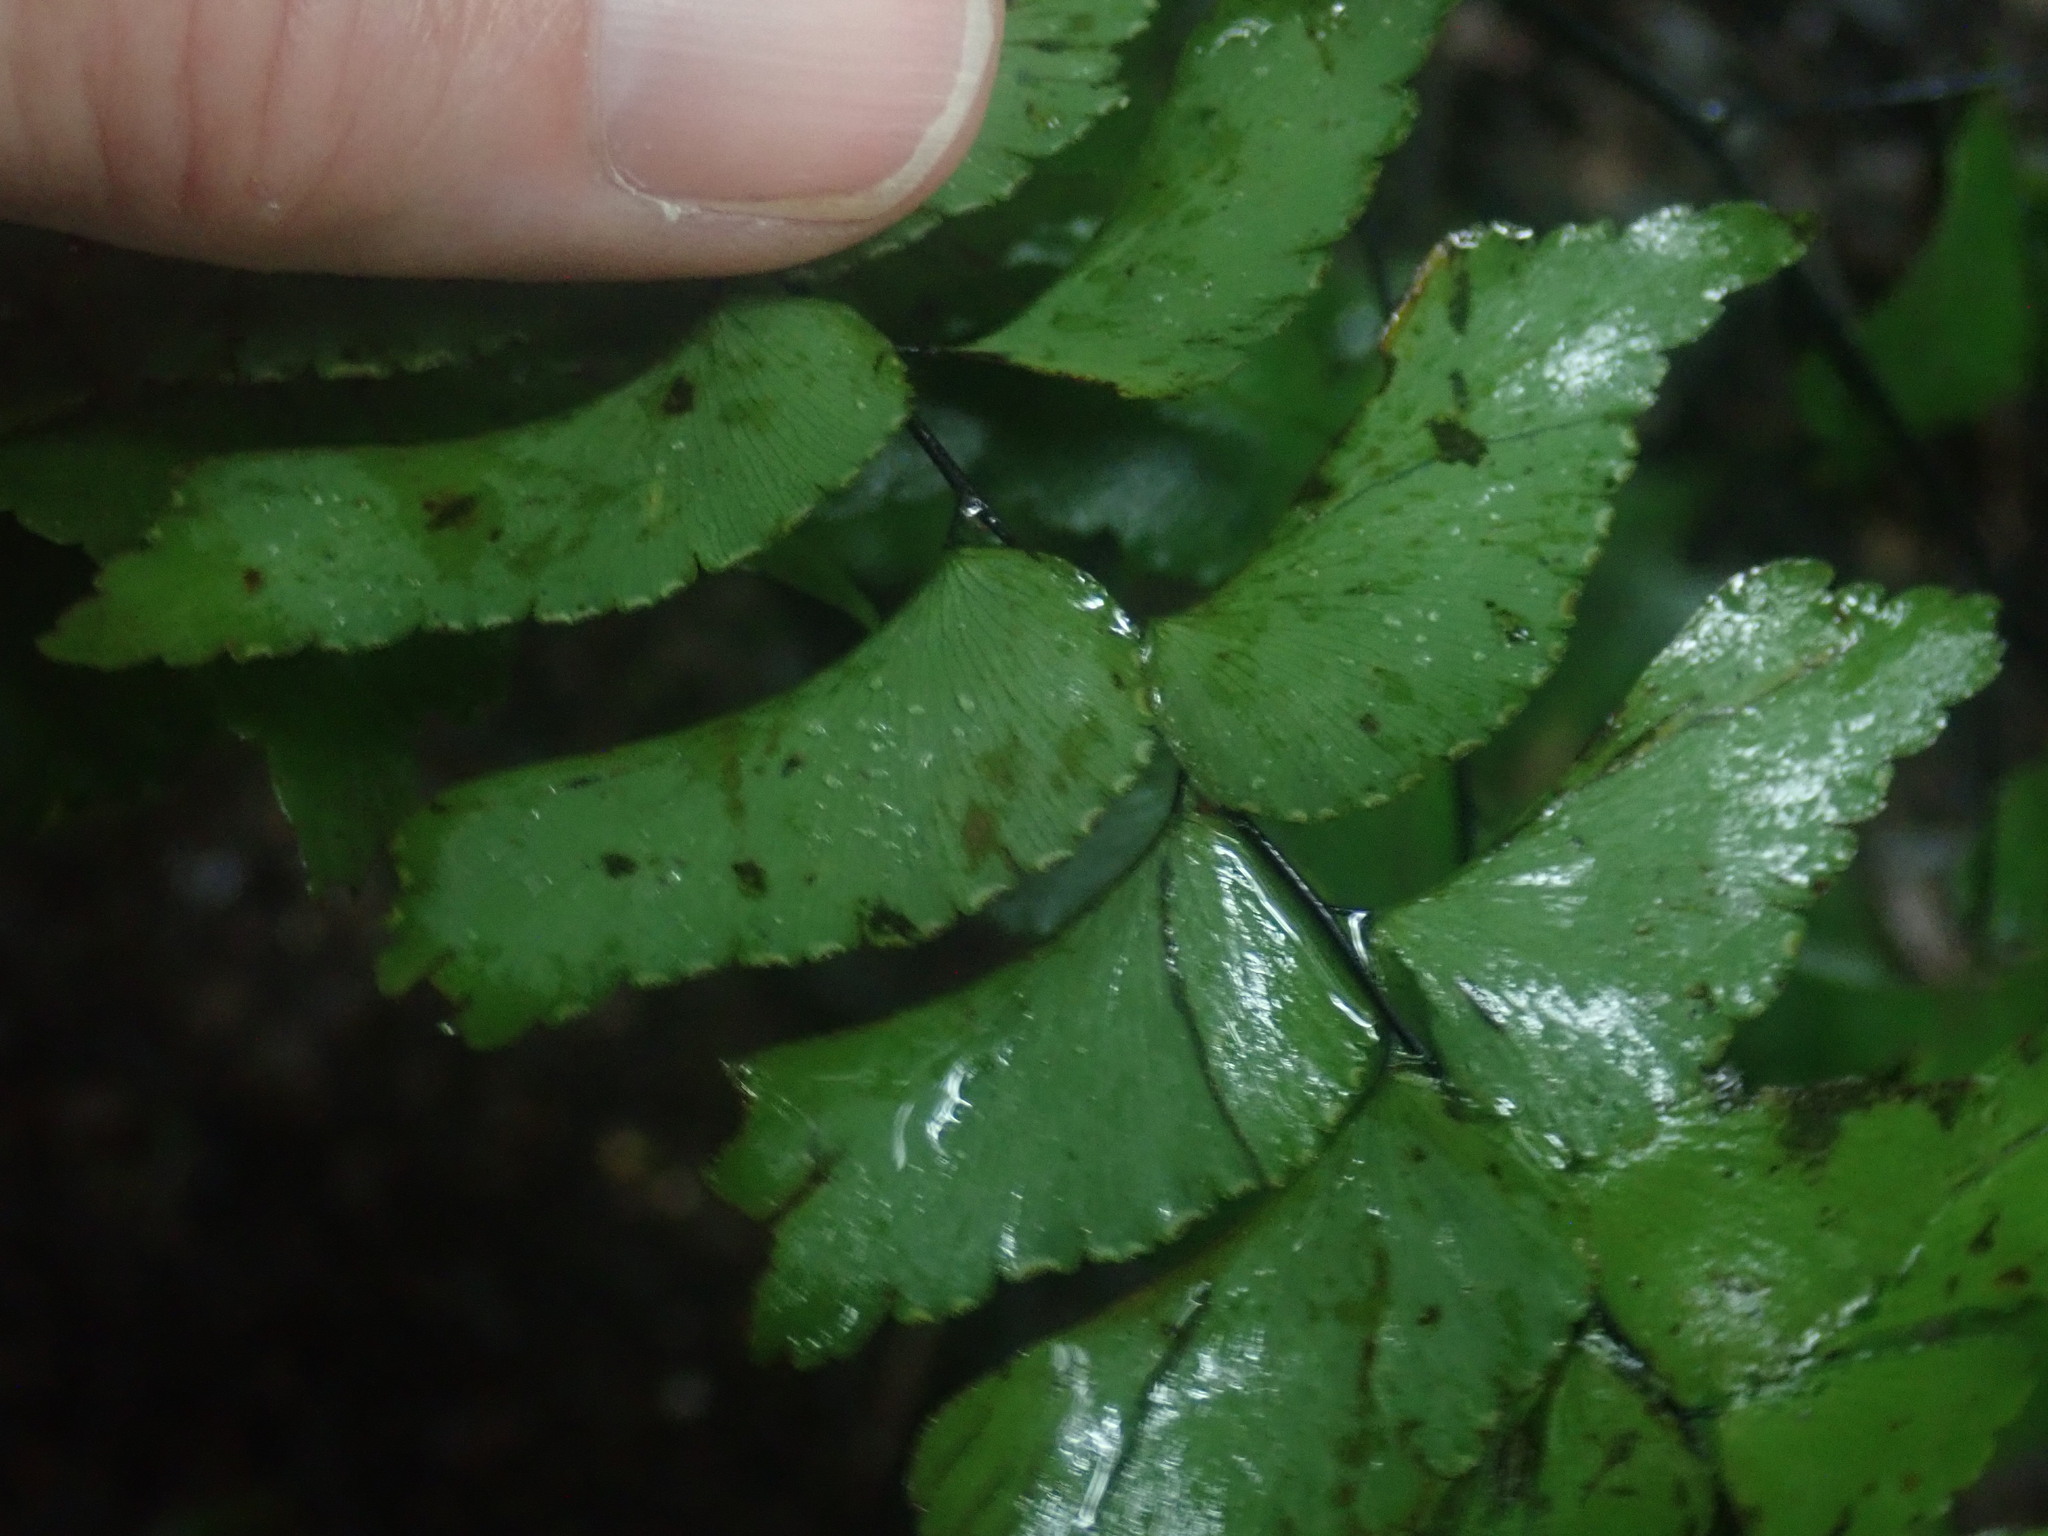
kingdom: Plantae
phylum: Tracheophyta
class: Polypodiopsida
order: Polypodiales
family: Pteridaceae
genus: Adiantum
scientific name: Adiantum trapeziforme
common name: Diamond maidenhair
